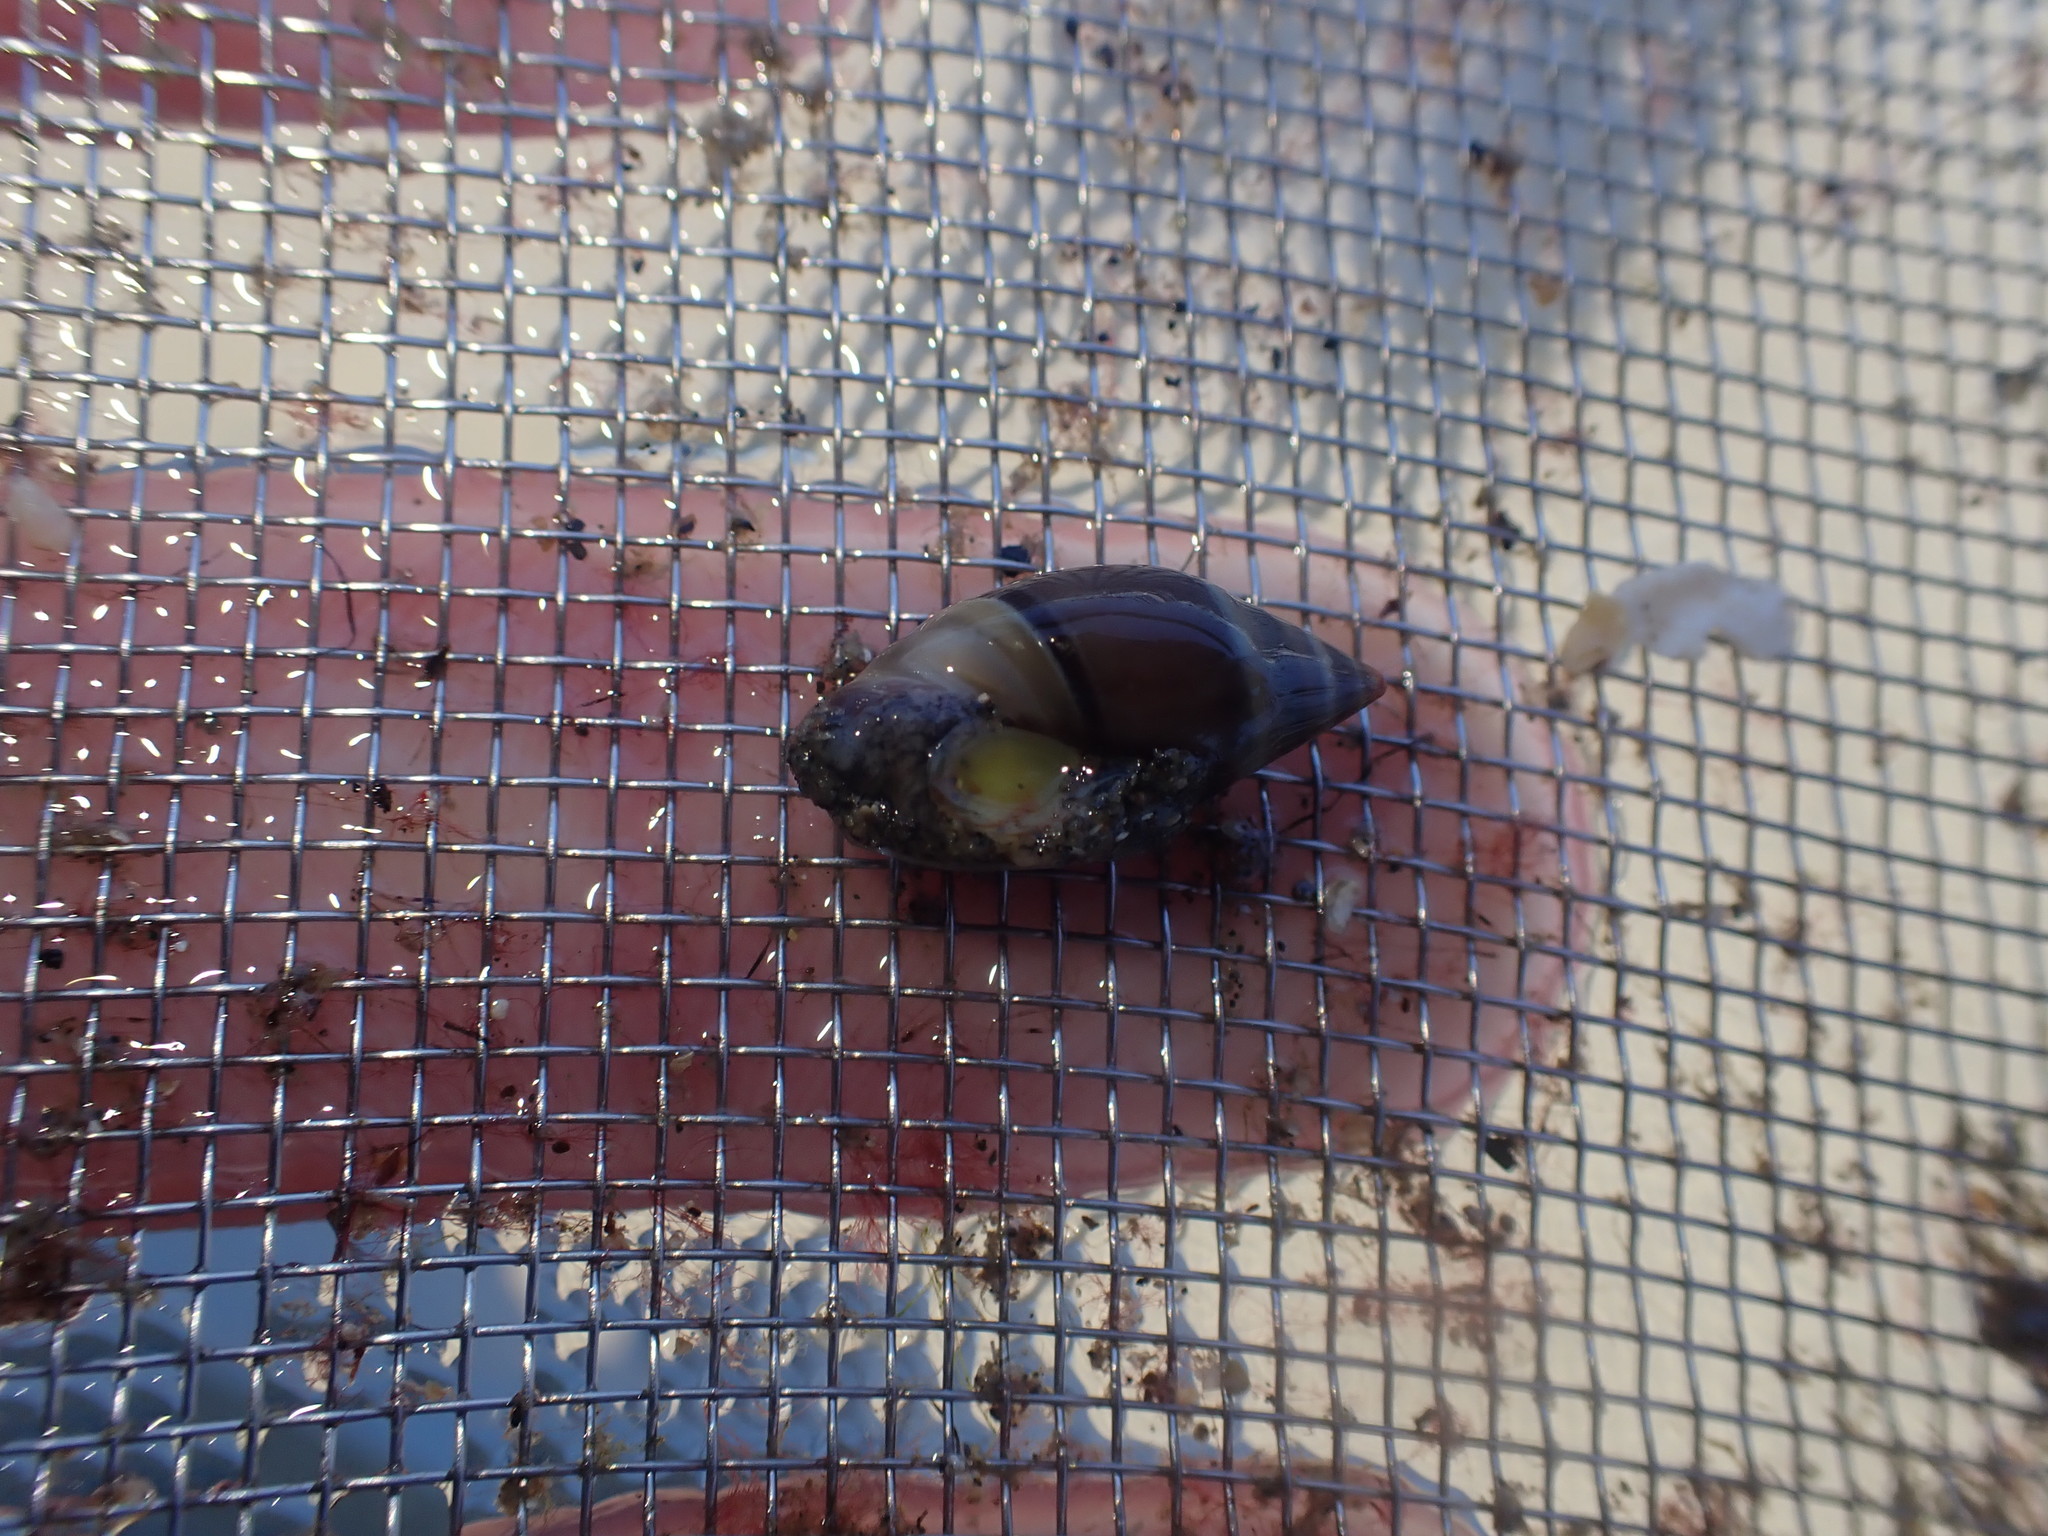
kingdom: Animalia
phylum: Mollusca
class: Gastropoda
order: Neogastropoda
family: Ancillariidae
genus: Amalda
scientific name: Amalda australis
